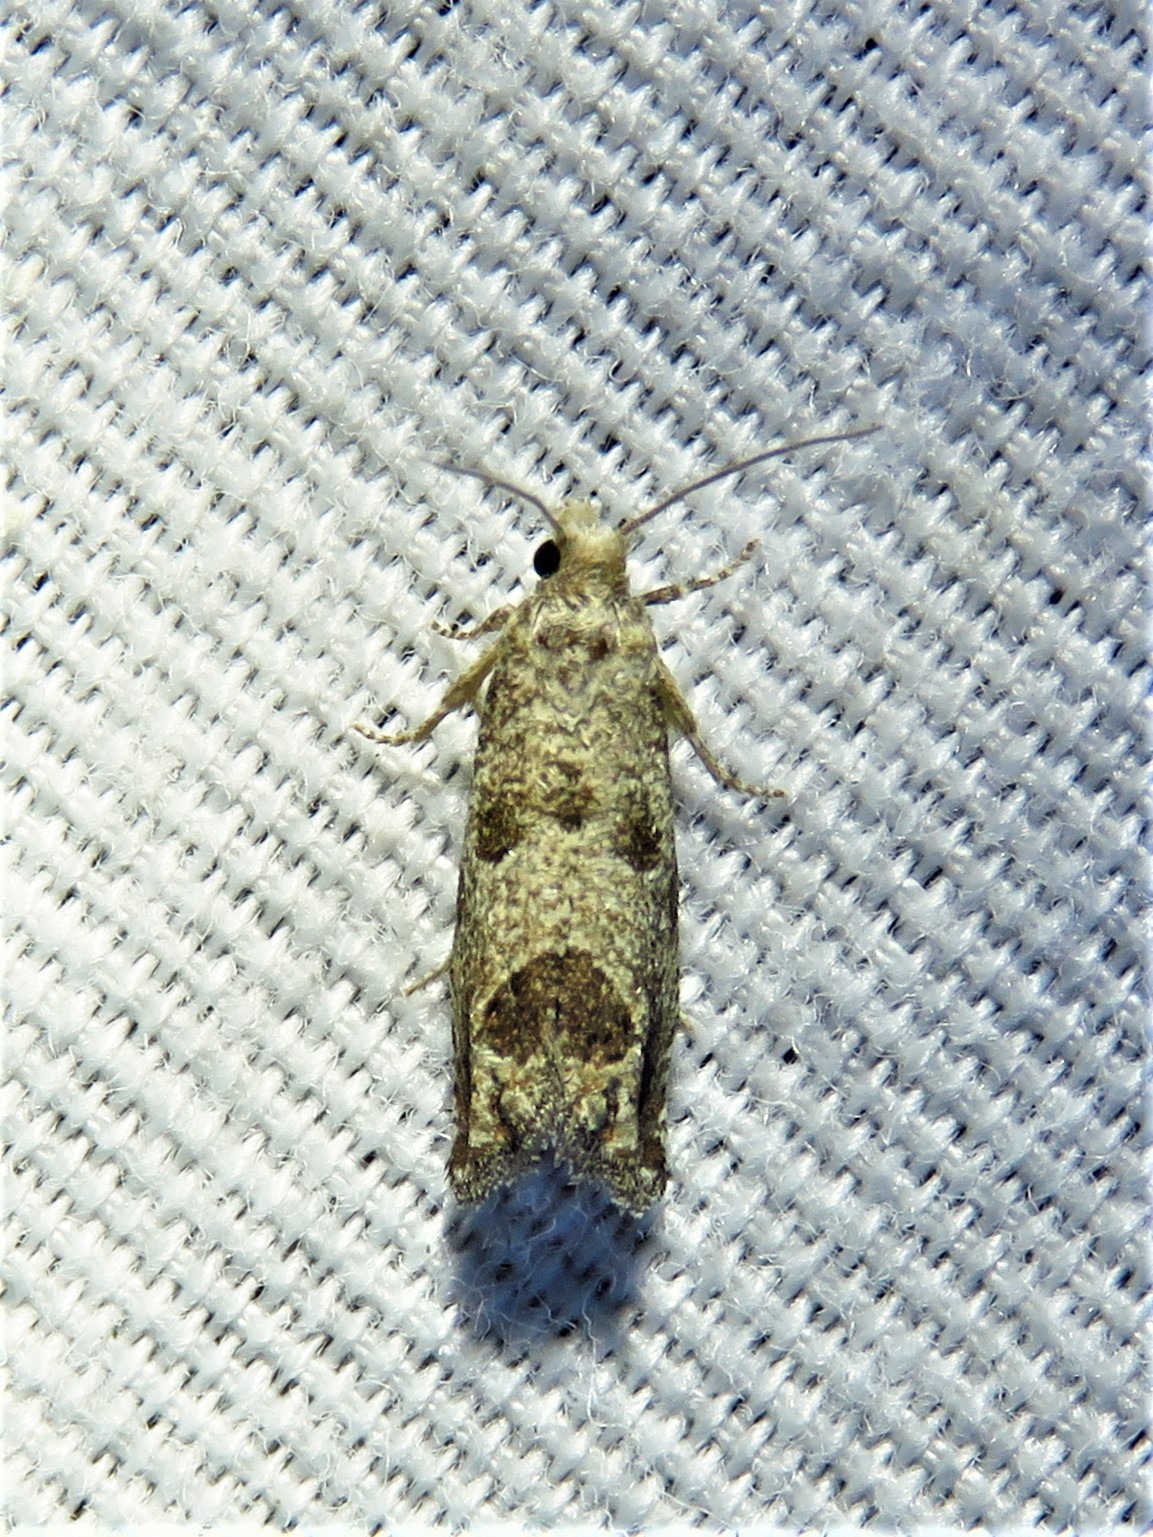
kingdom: Animalia
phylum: Arthropoda
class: Insecta
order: Lepidoptera
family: Tortricidae
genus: Pelochrista
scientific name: Pelochrista persolita
